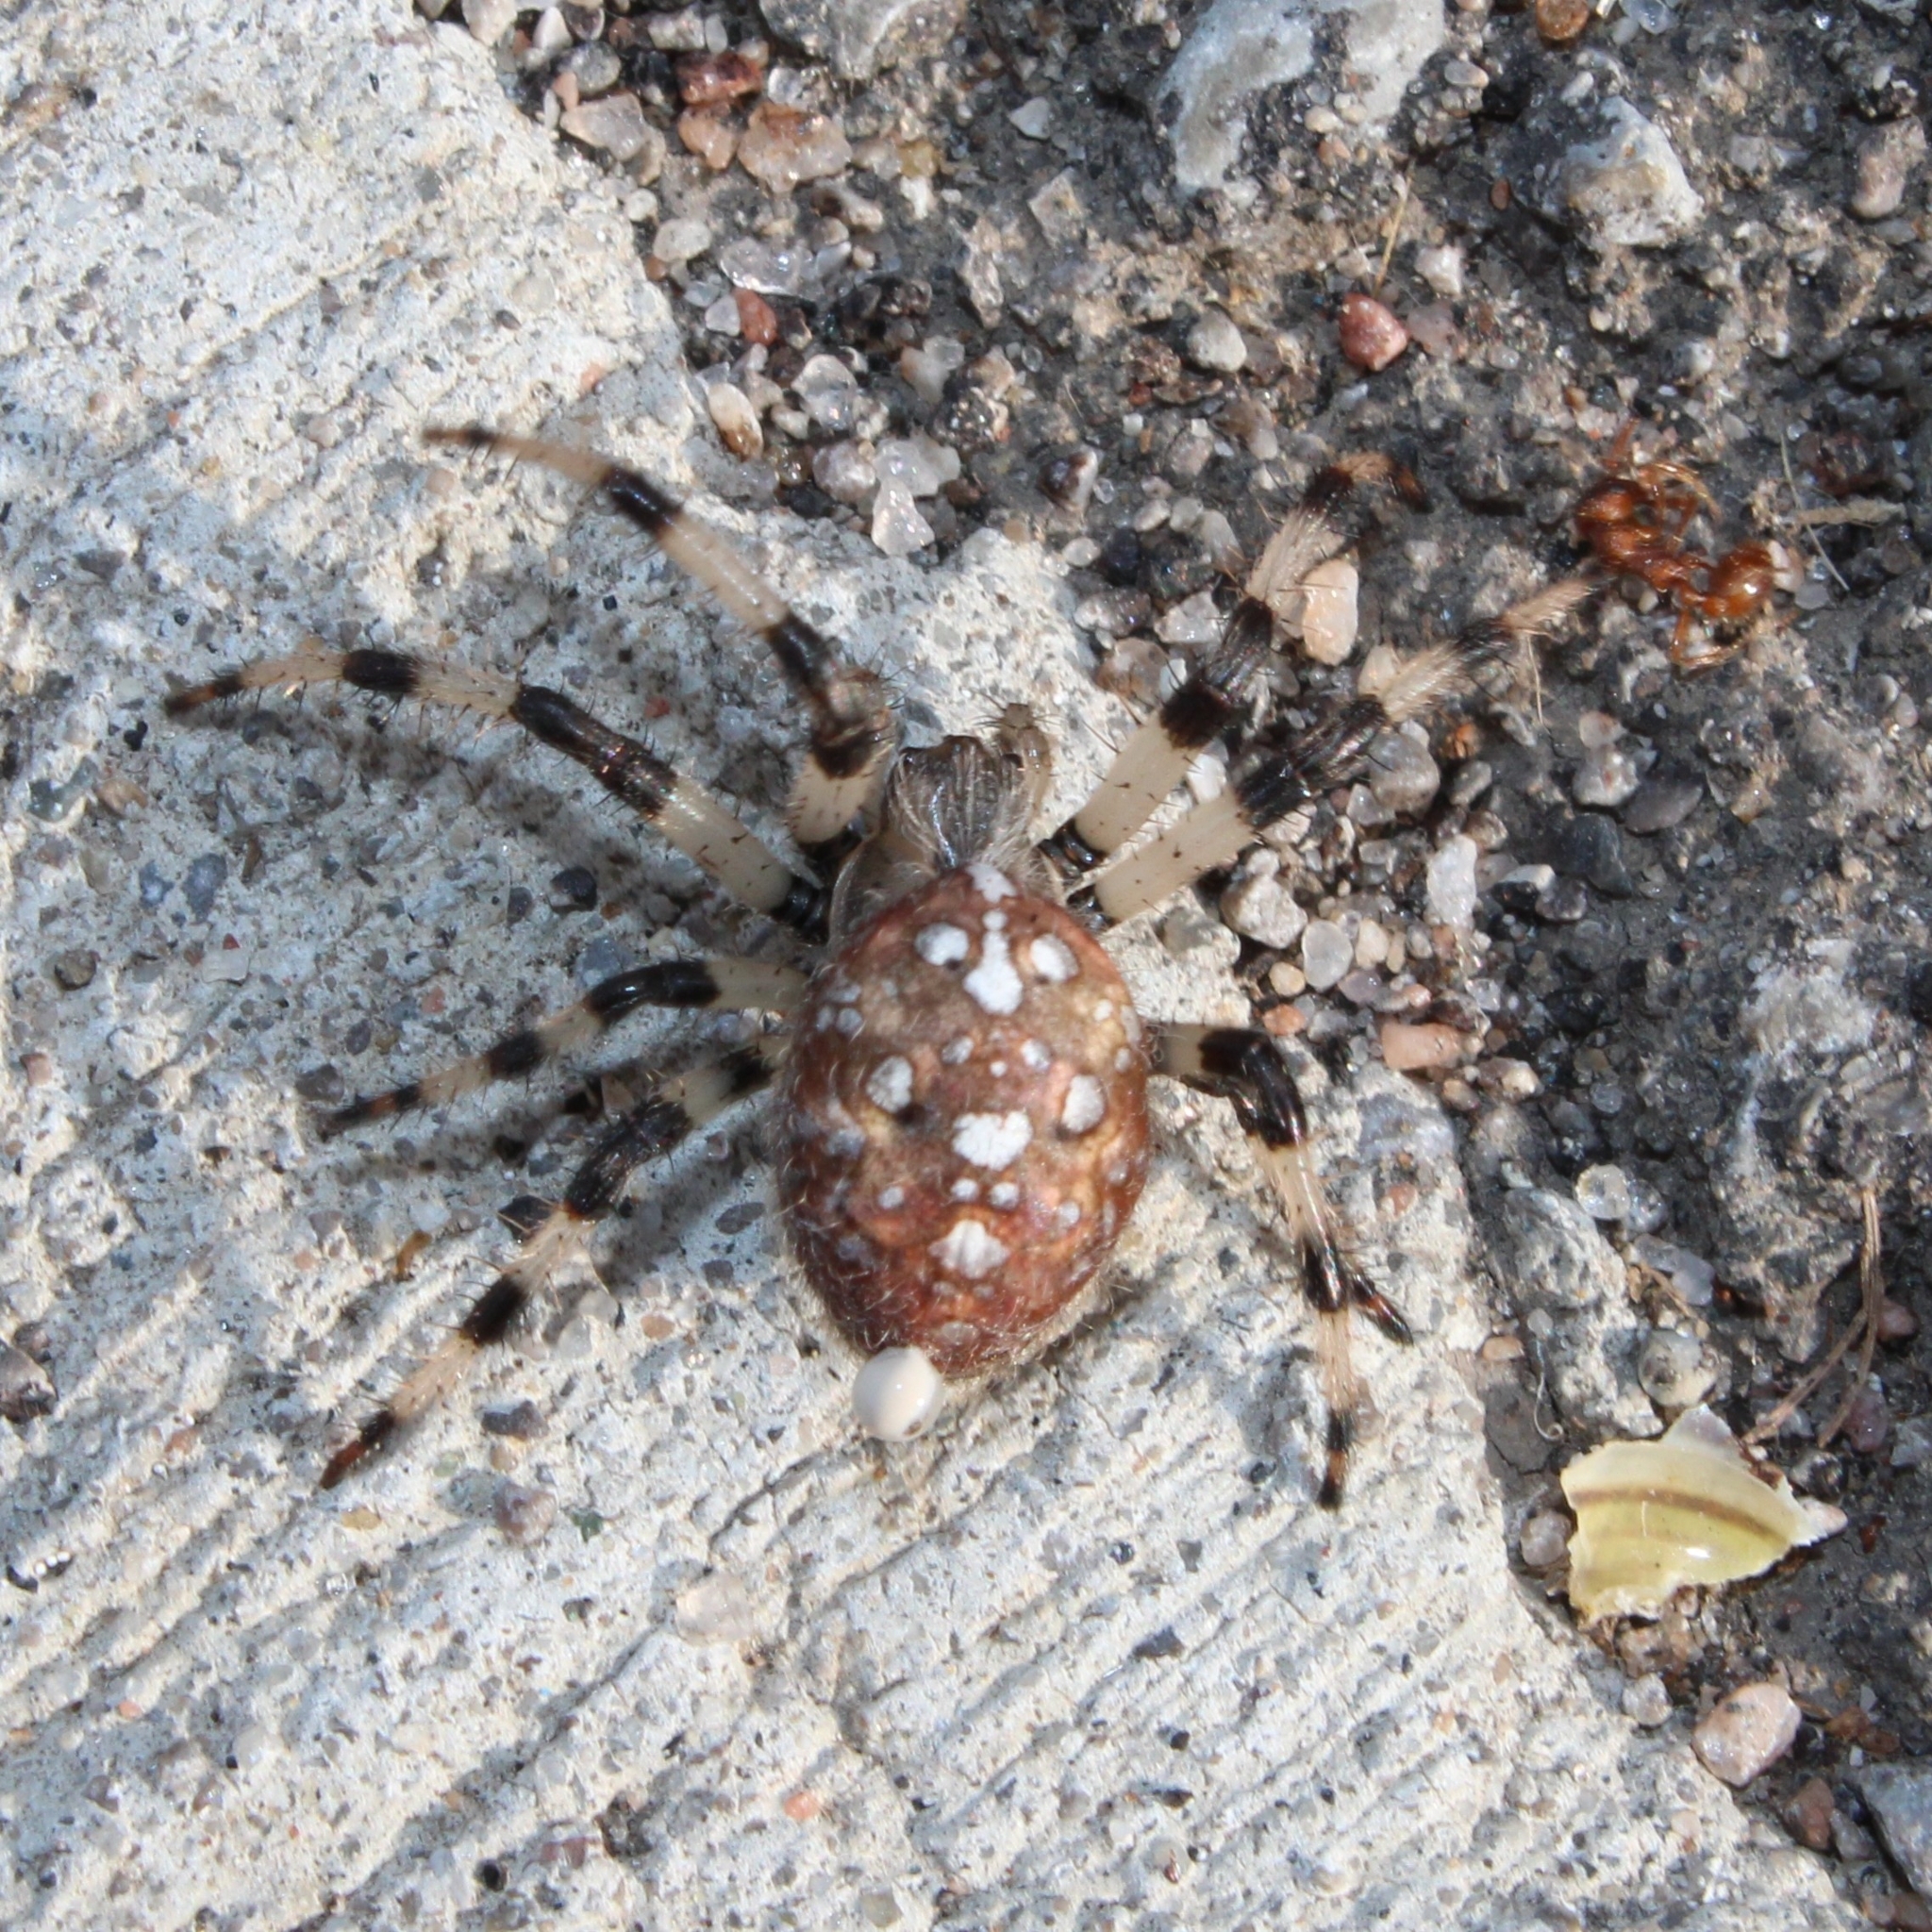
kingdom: Animalia
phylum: Arthropoda
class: Arachnida
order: Araneae
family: Araneidae
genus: Araneus
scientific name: Araneus trifolium
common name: Shamrock orbweaver
